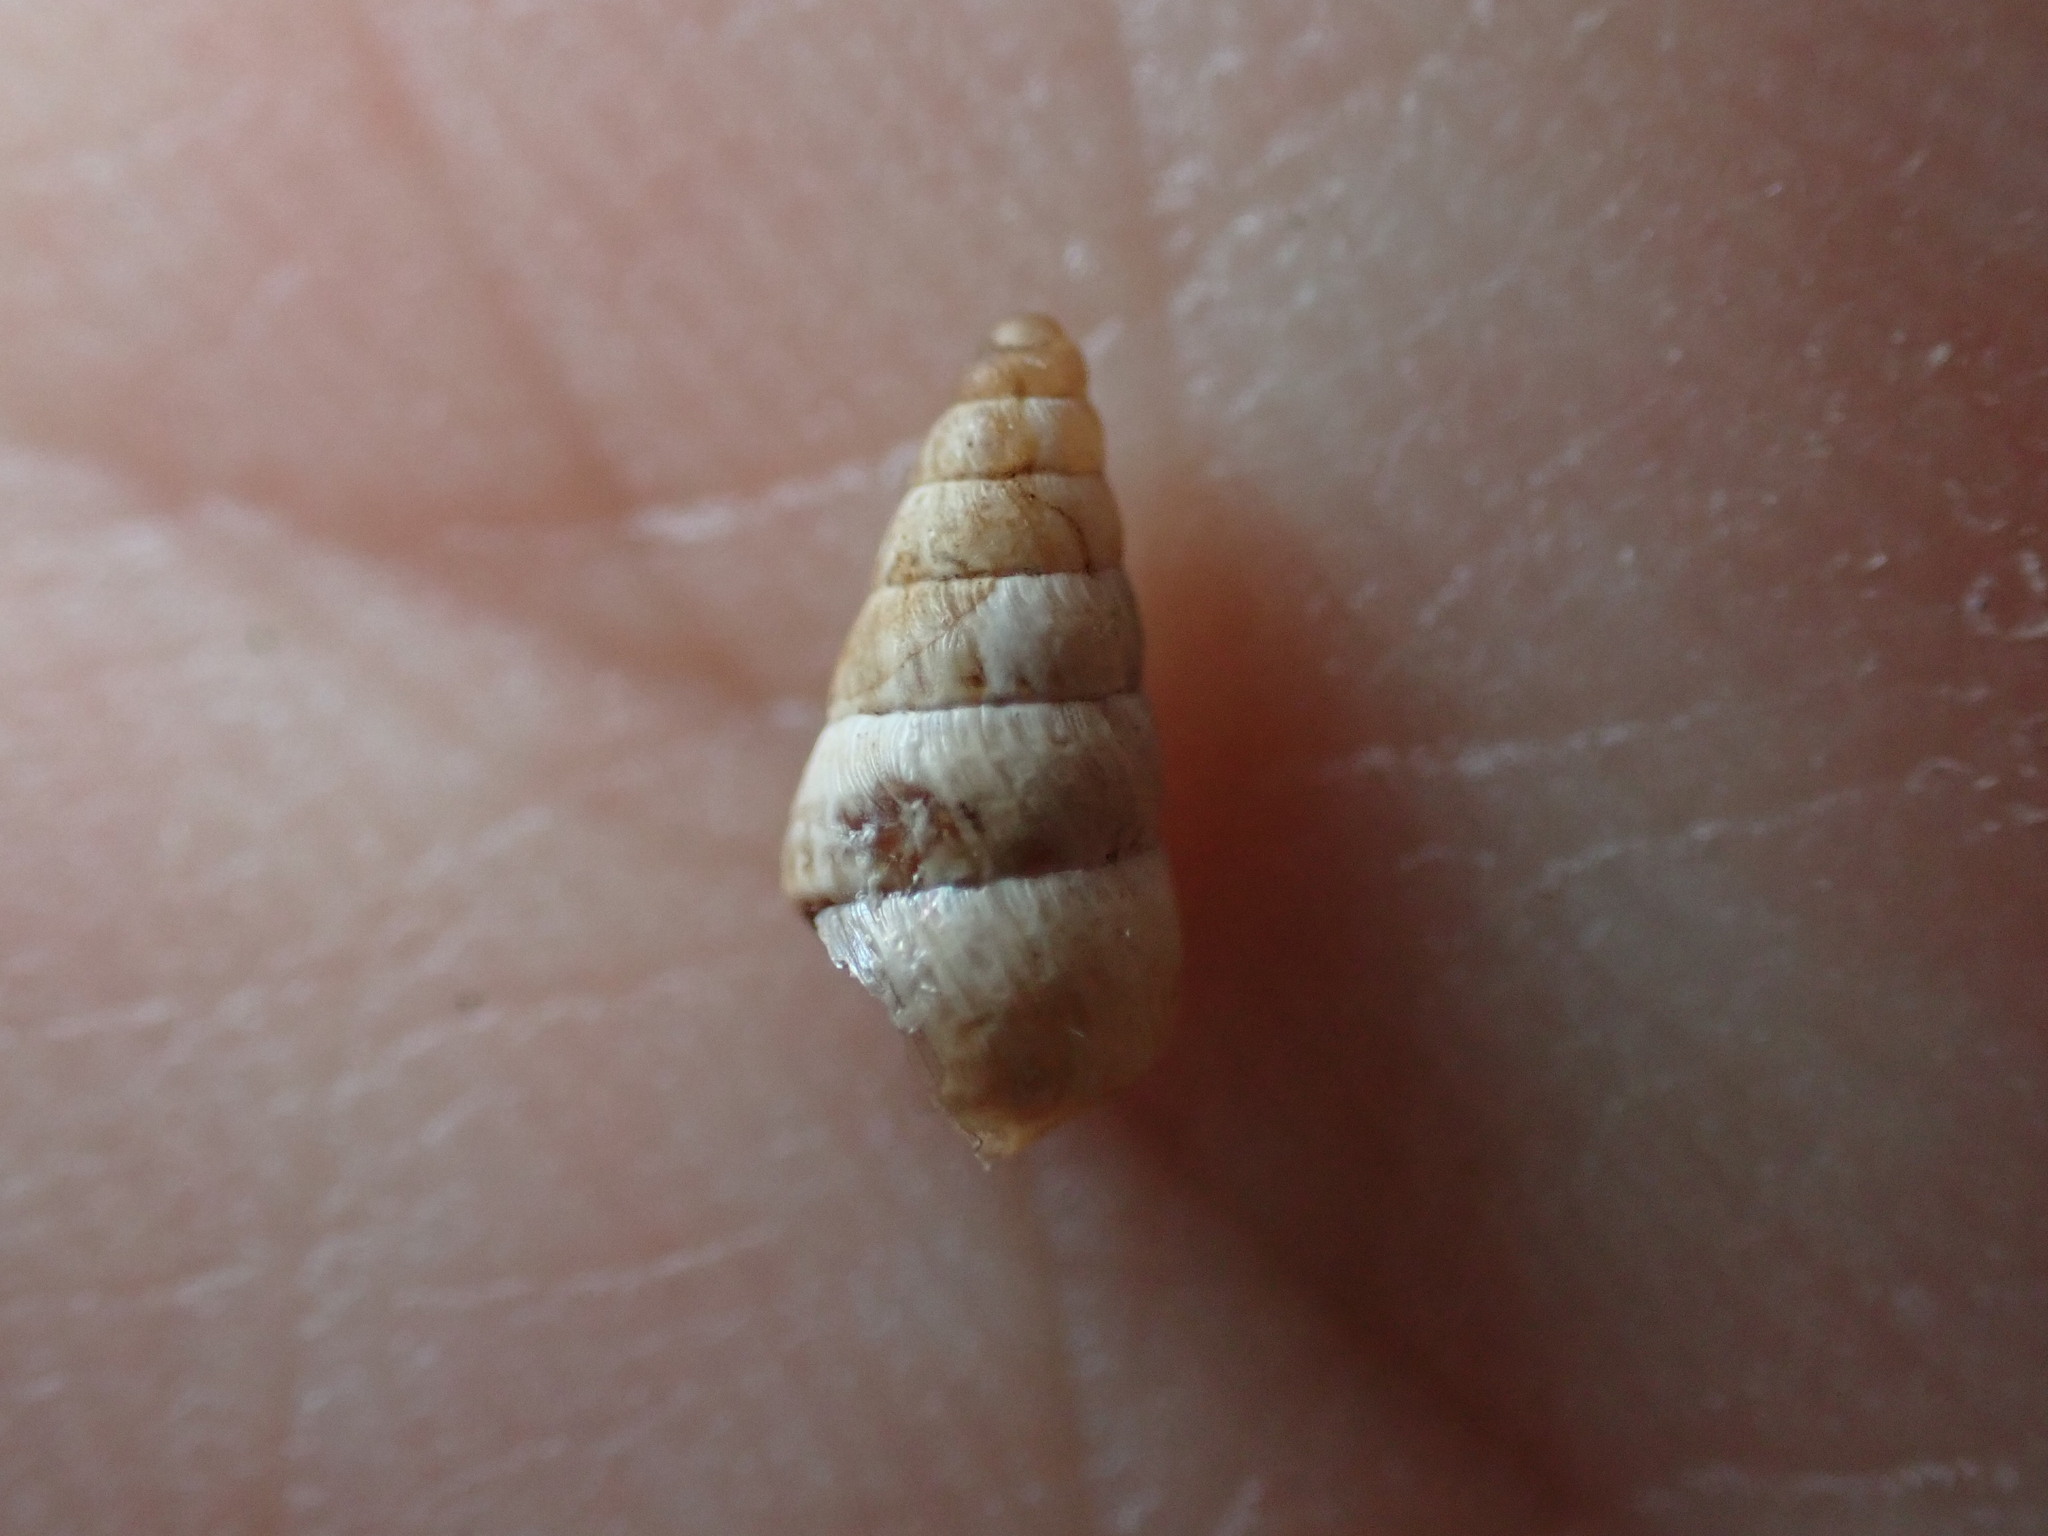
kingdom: Animalia
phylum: Mollusca
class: Gastropoda
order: Stylommatophora
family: Geomitridae
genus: Cochlicella
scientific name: Cochlicella acuta
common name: Pointed snail
